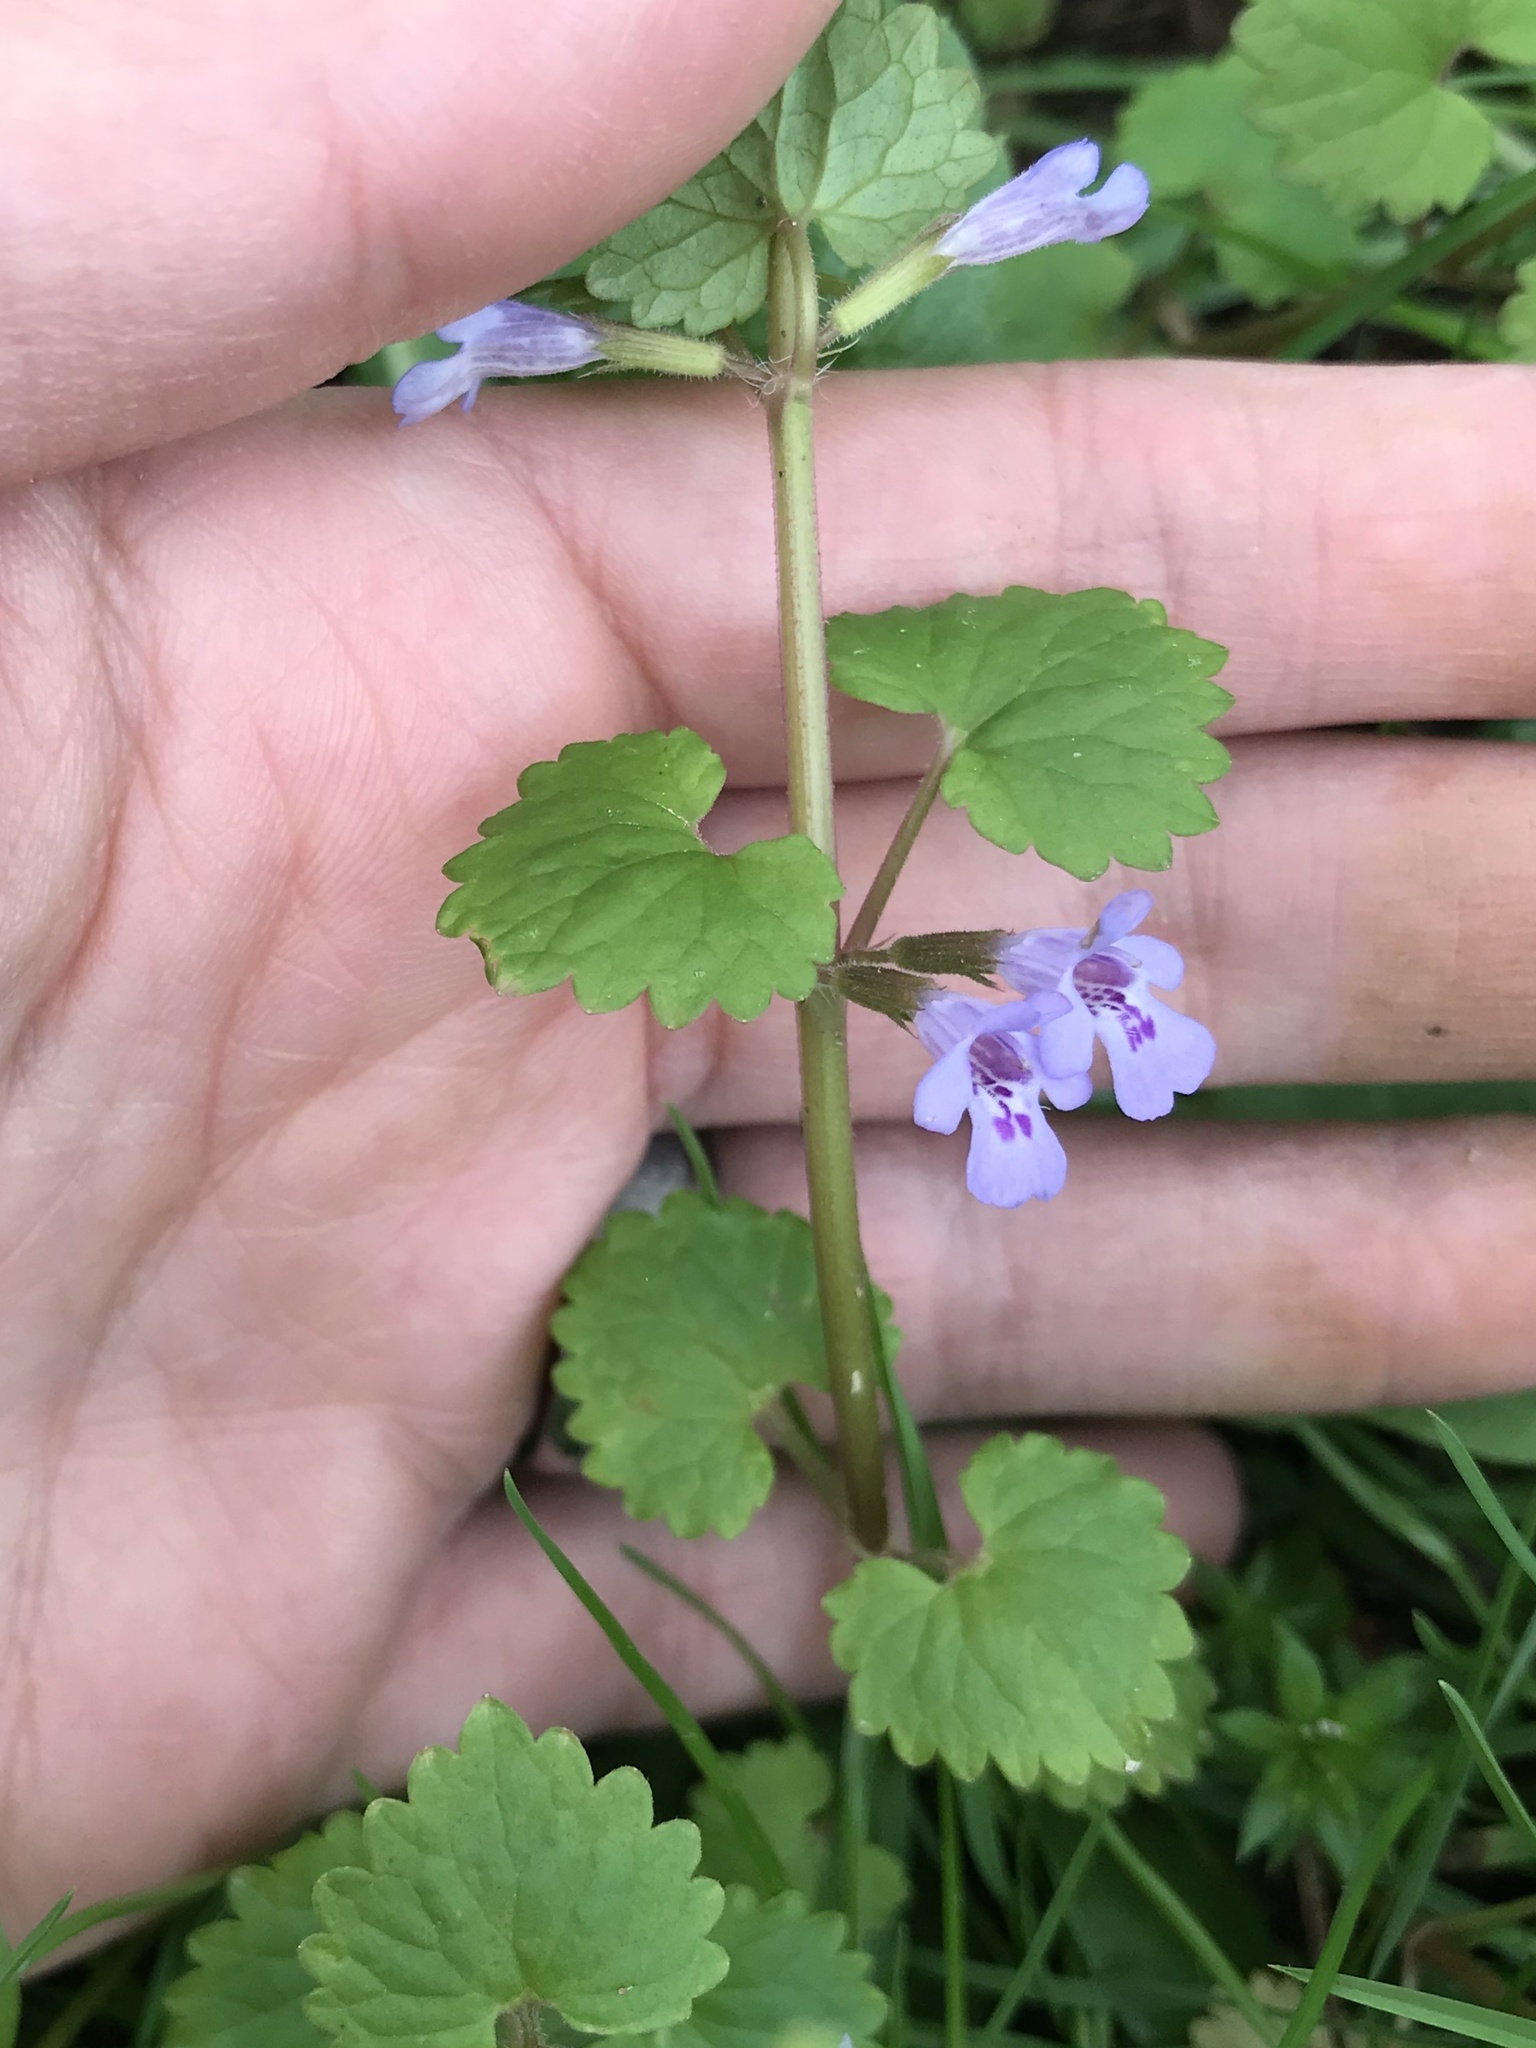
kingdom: Plantae
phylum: Tracheophyta
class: Magnoliopsida
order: Lamiales
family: Lamiaceae
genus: Glechoma
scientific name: Glechoma hederacea
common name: Ground ivy
